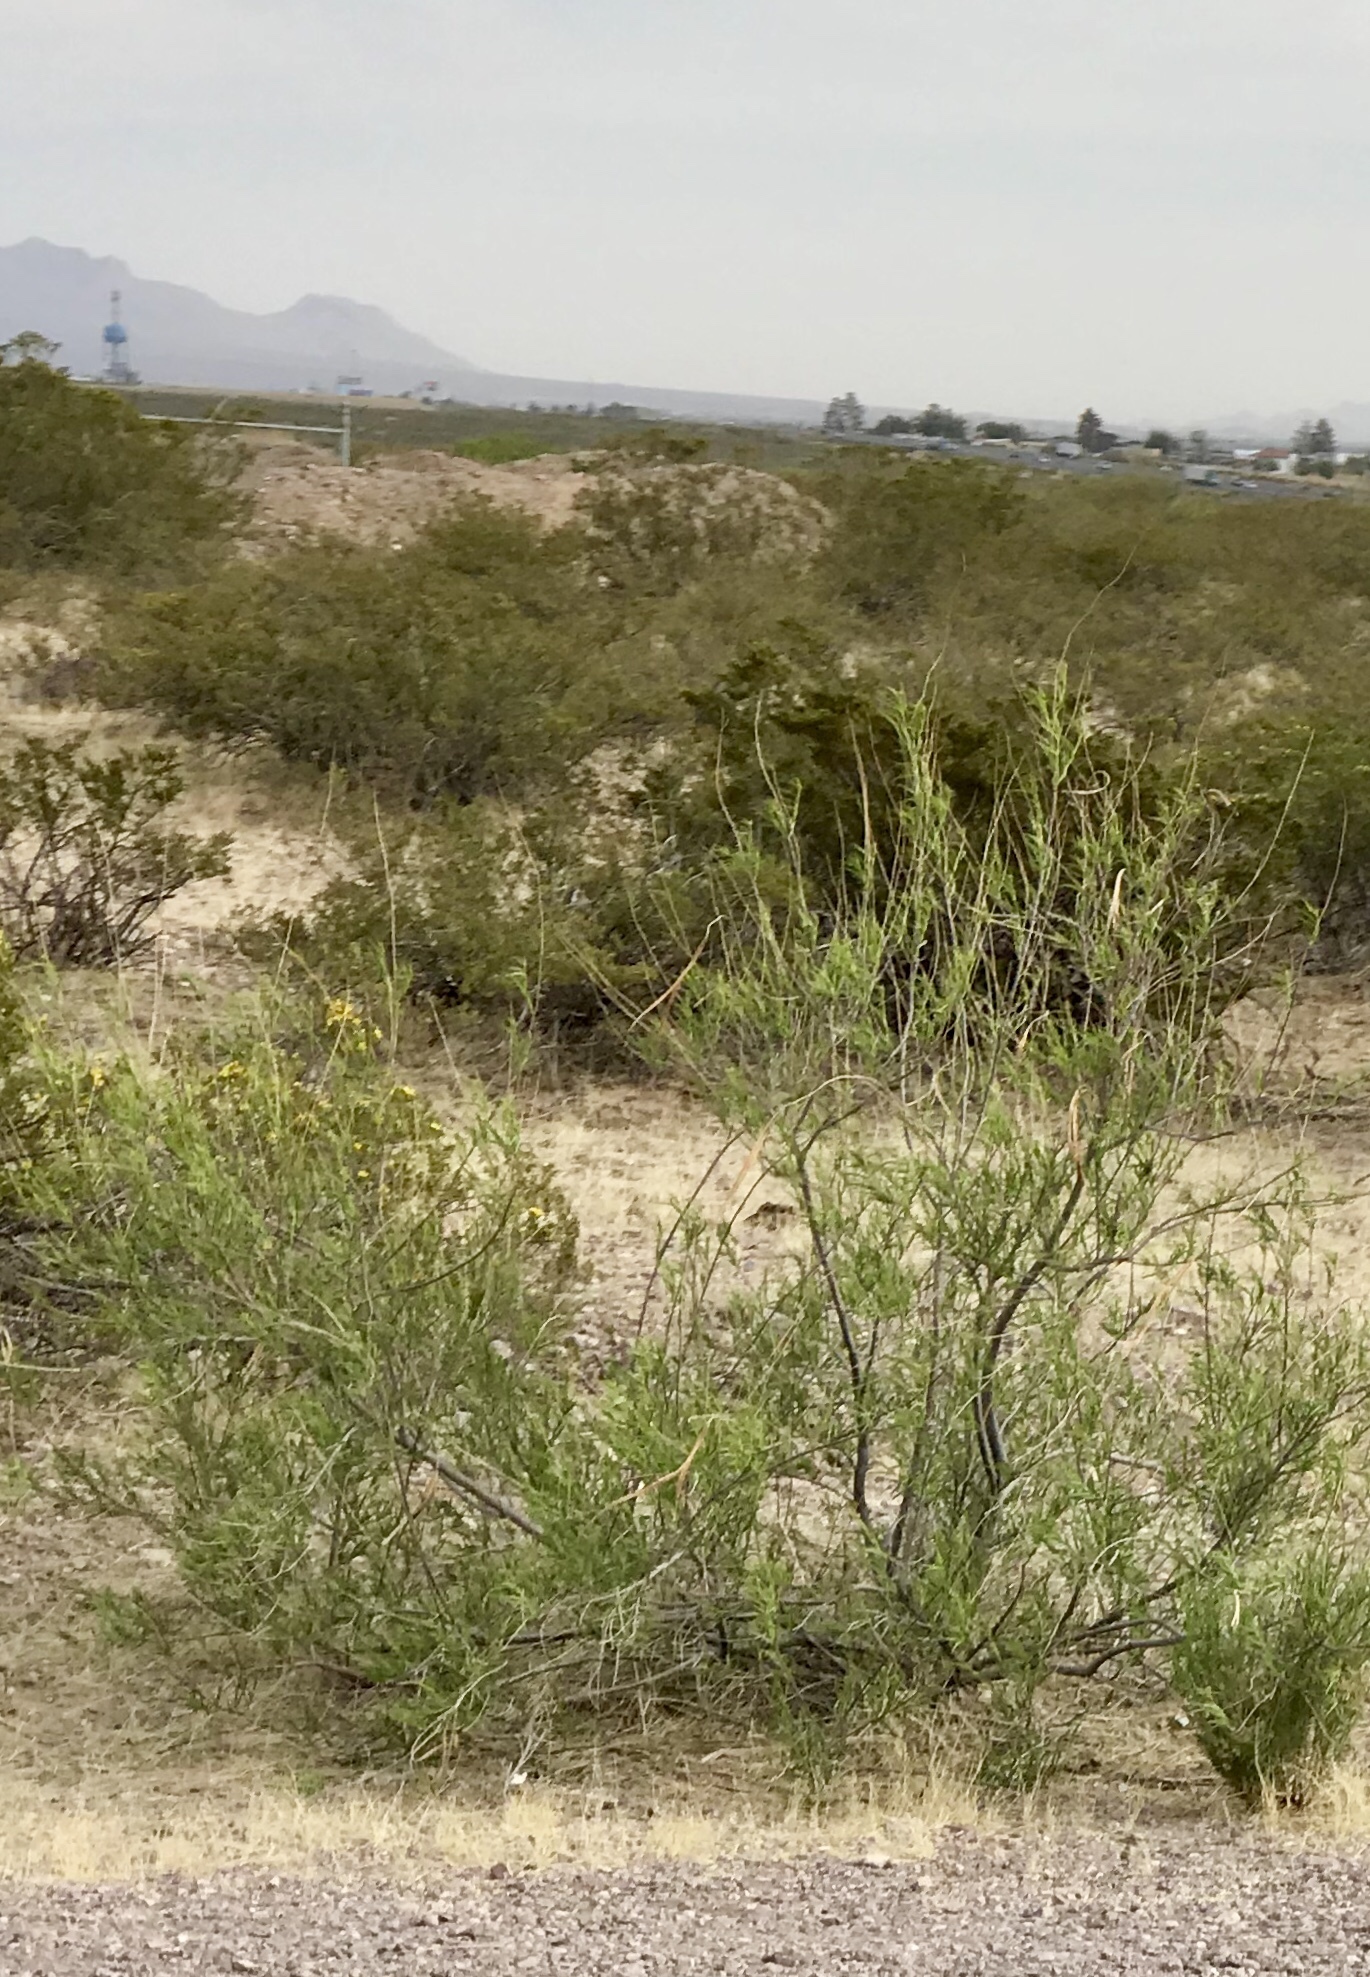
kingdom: Plantae
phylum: Tracheophyta
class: Magnoliopsida
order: Lamiales
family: Bignoniaceae
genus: Chilopsis
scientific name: Chilopsis linearis
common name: Desert-willow
